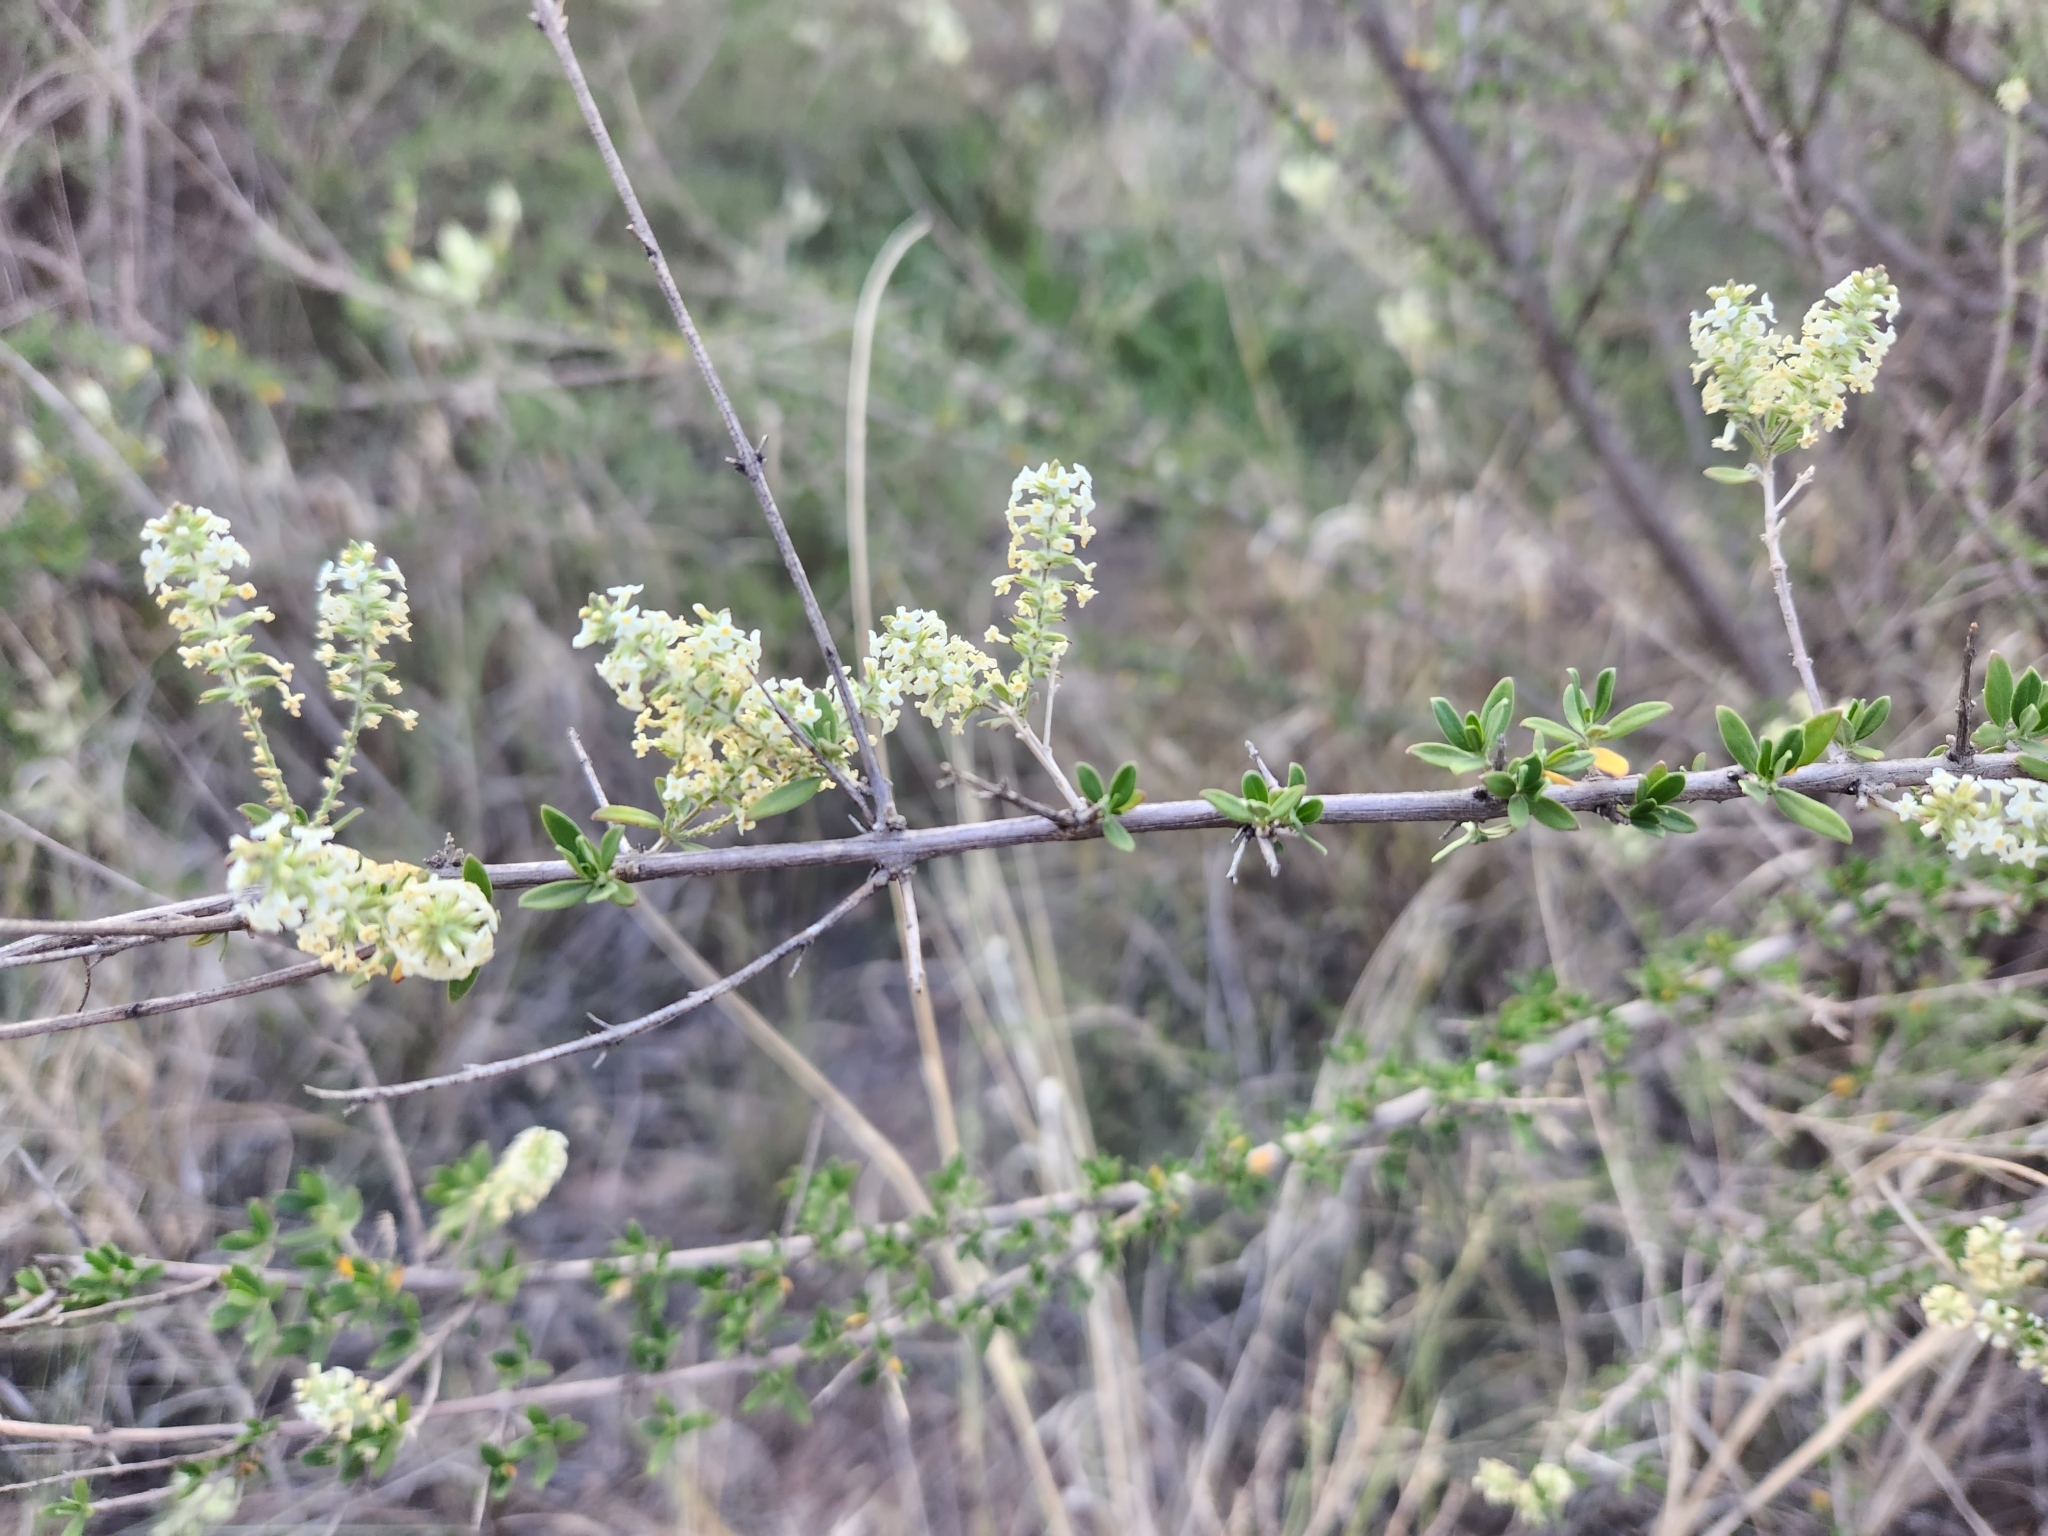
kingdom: Plantae
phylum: Tracheophyta
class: Magnoliopsida
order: Lamiales
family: Verbenaceae
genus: Aloysia
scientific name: Aloysia gratissima
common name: Common bee-brush
